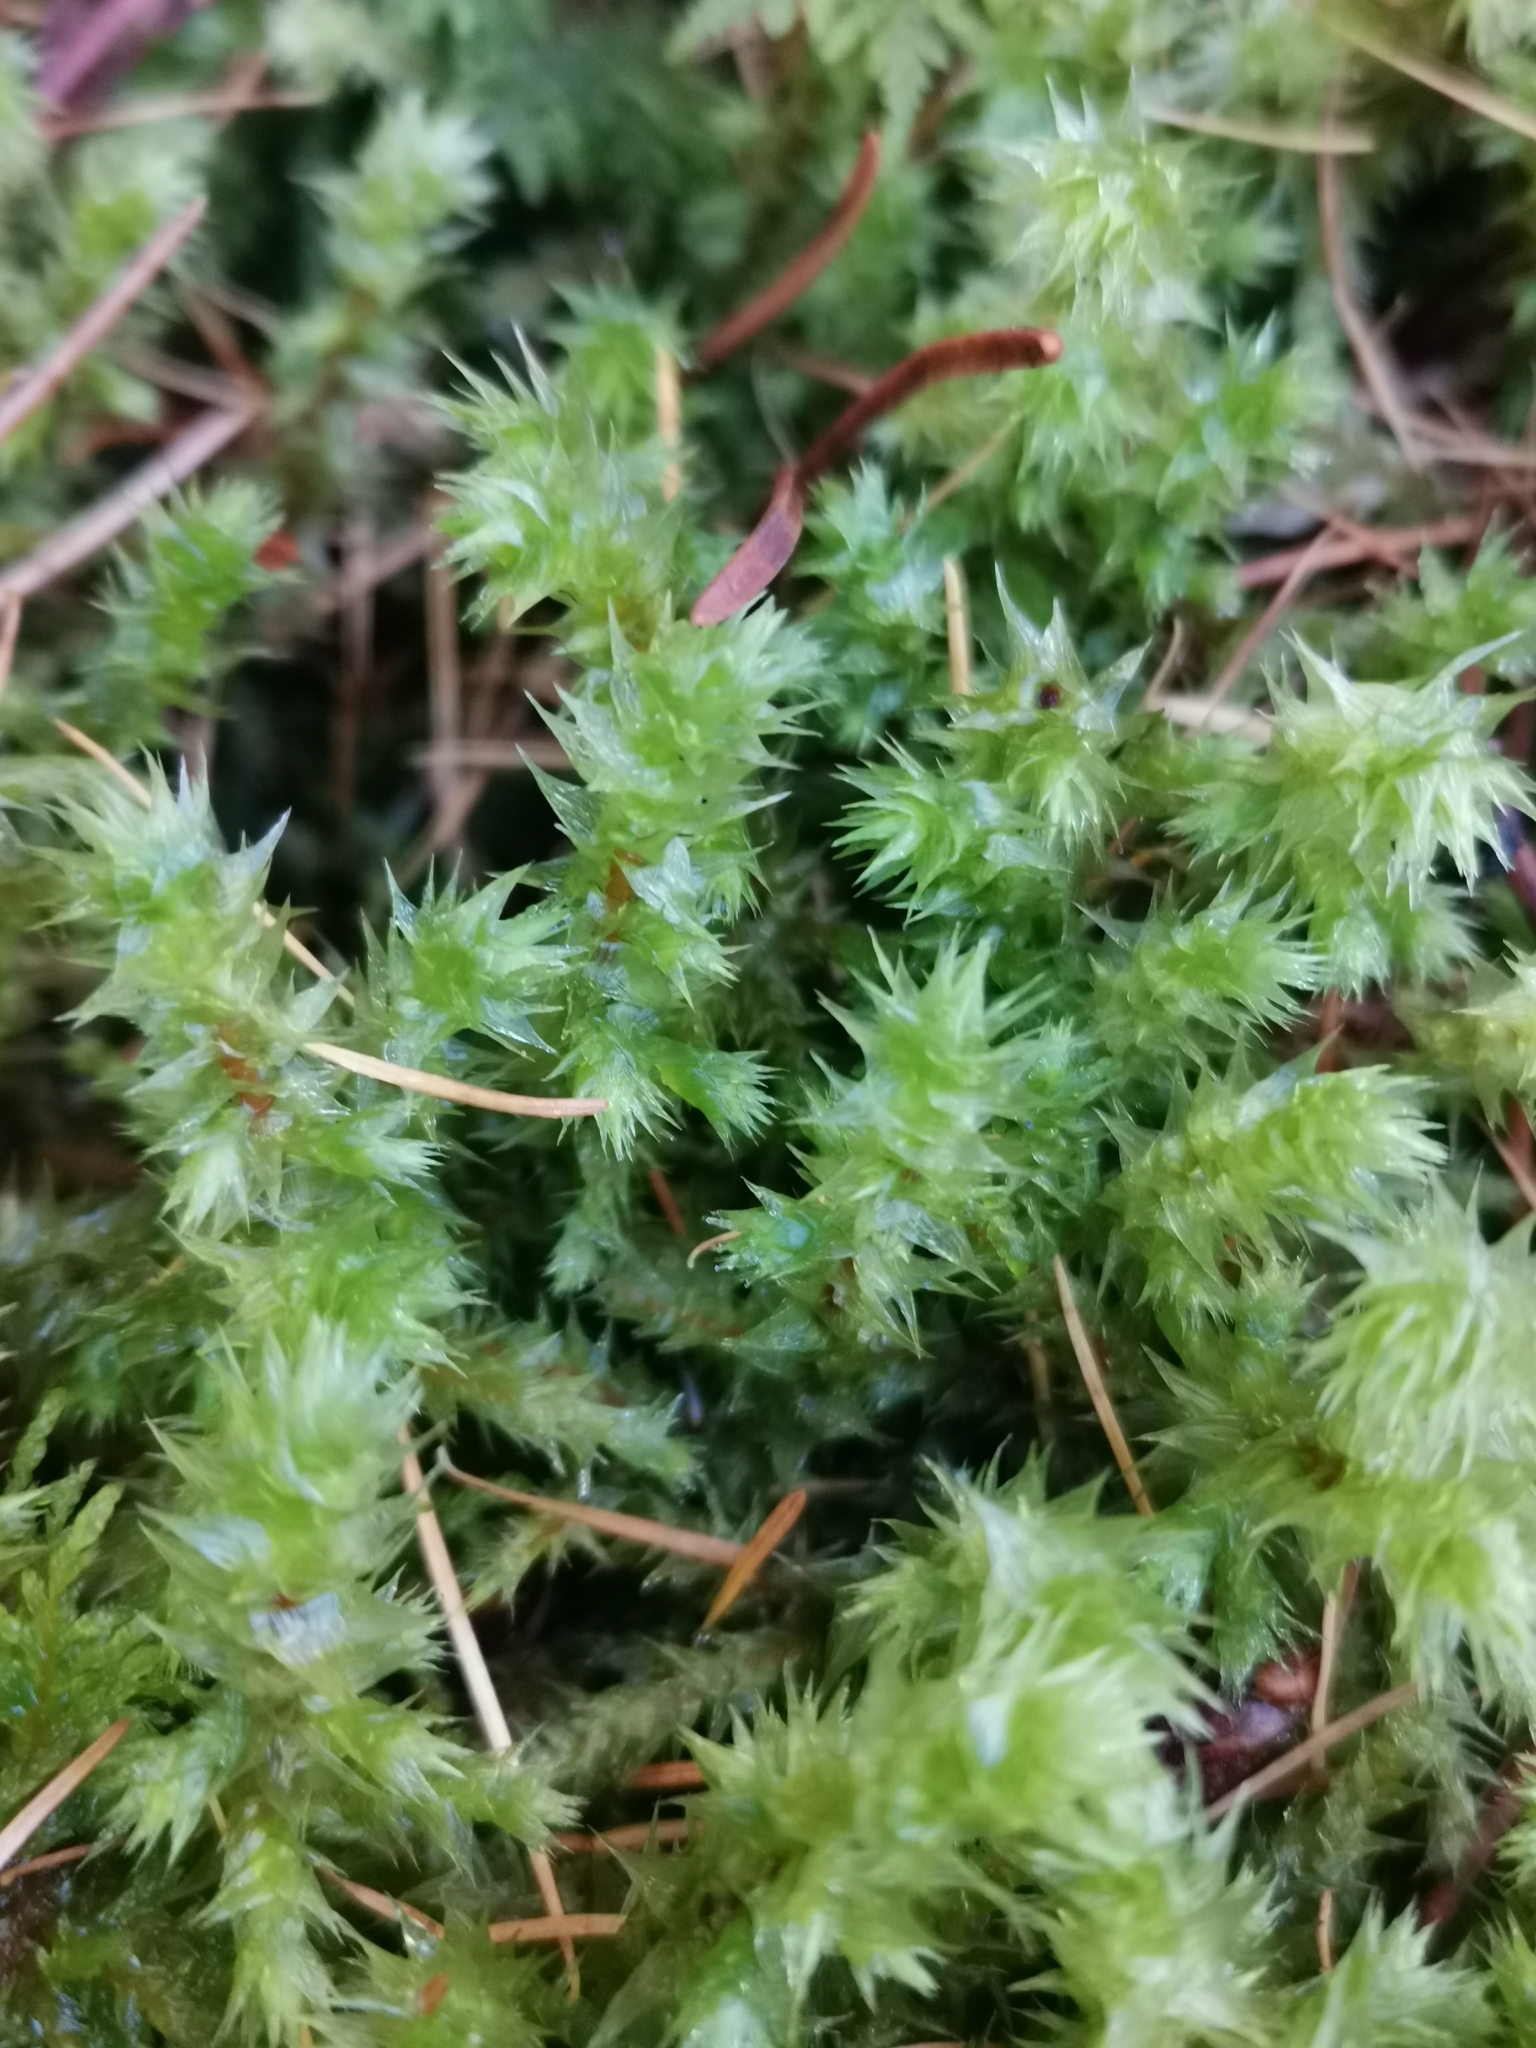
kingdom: Plantae
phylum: Bryophyta
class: Bryopsida
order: Hypnales
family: Hylocomiaceae
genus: Hylocomiadelphus
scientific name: Hylocomiadelphus triquetrus
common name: Rough goose neck moss
